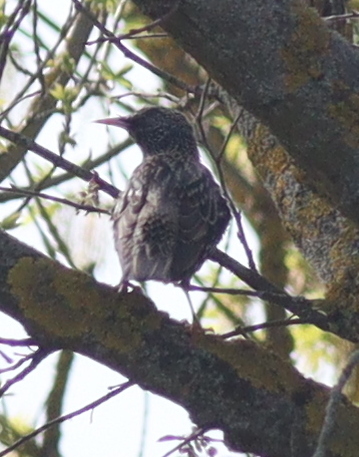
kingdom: Animalia
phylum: Chordata
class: Aves
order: Passeriformes
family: Sturnidae
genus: Sturnus
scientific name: Sturnus vulgaris
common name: Common starling
